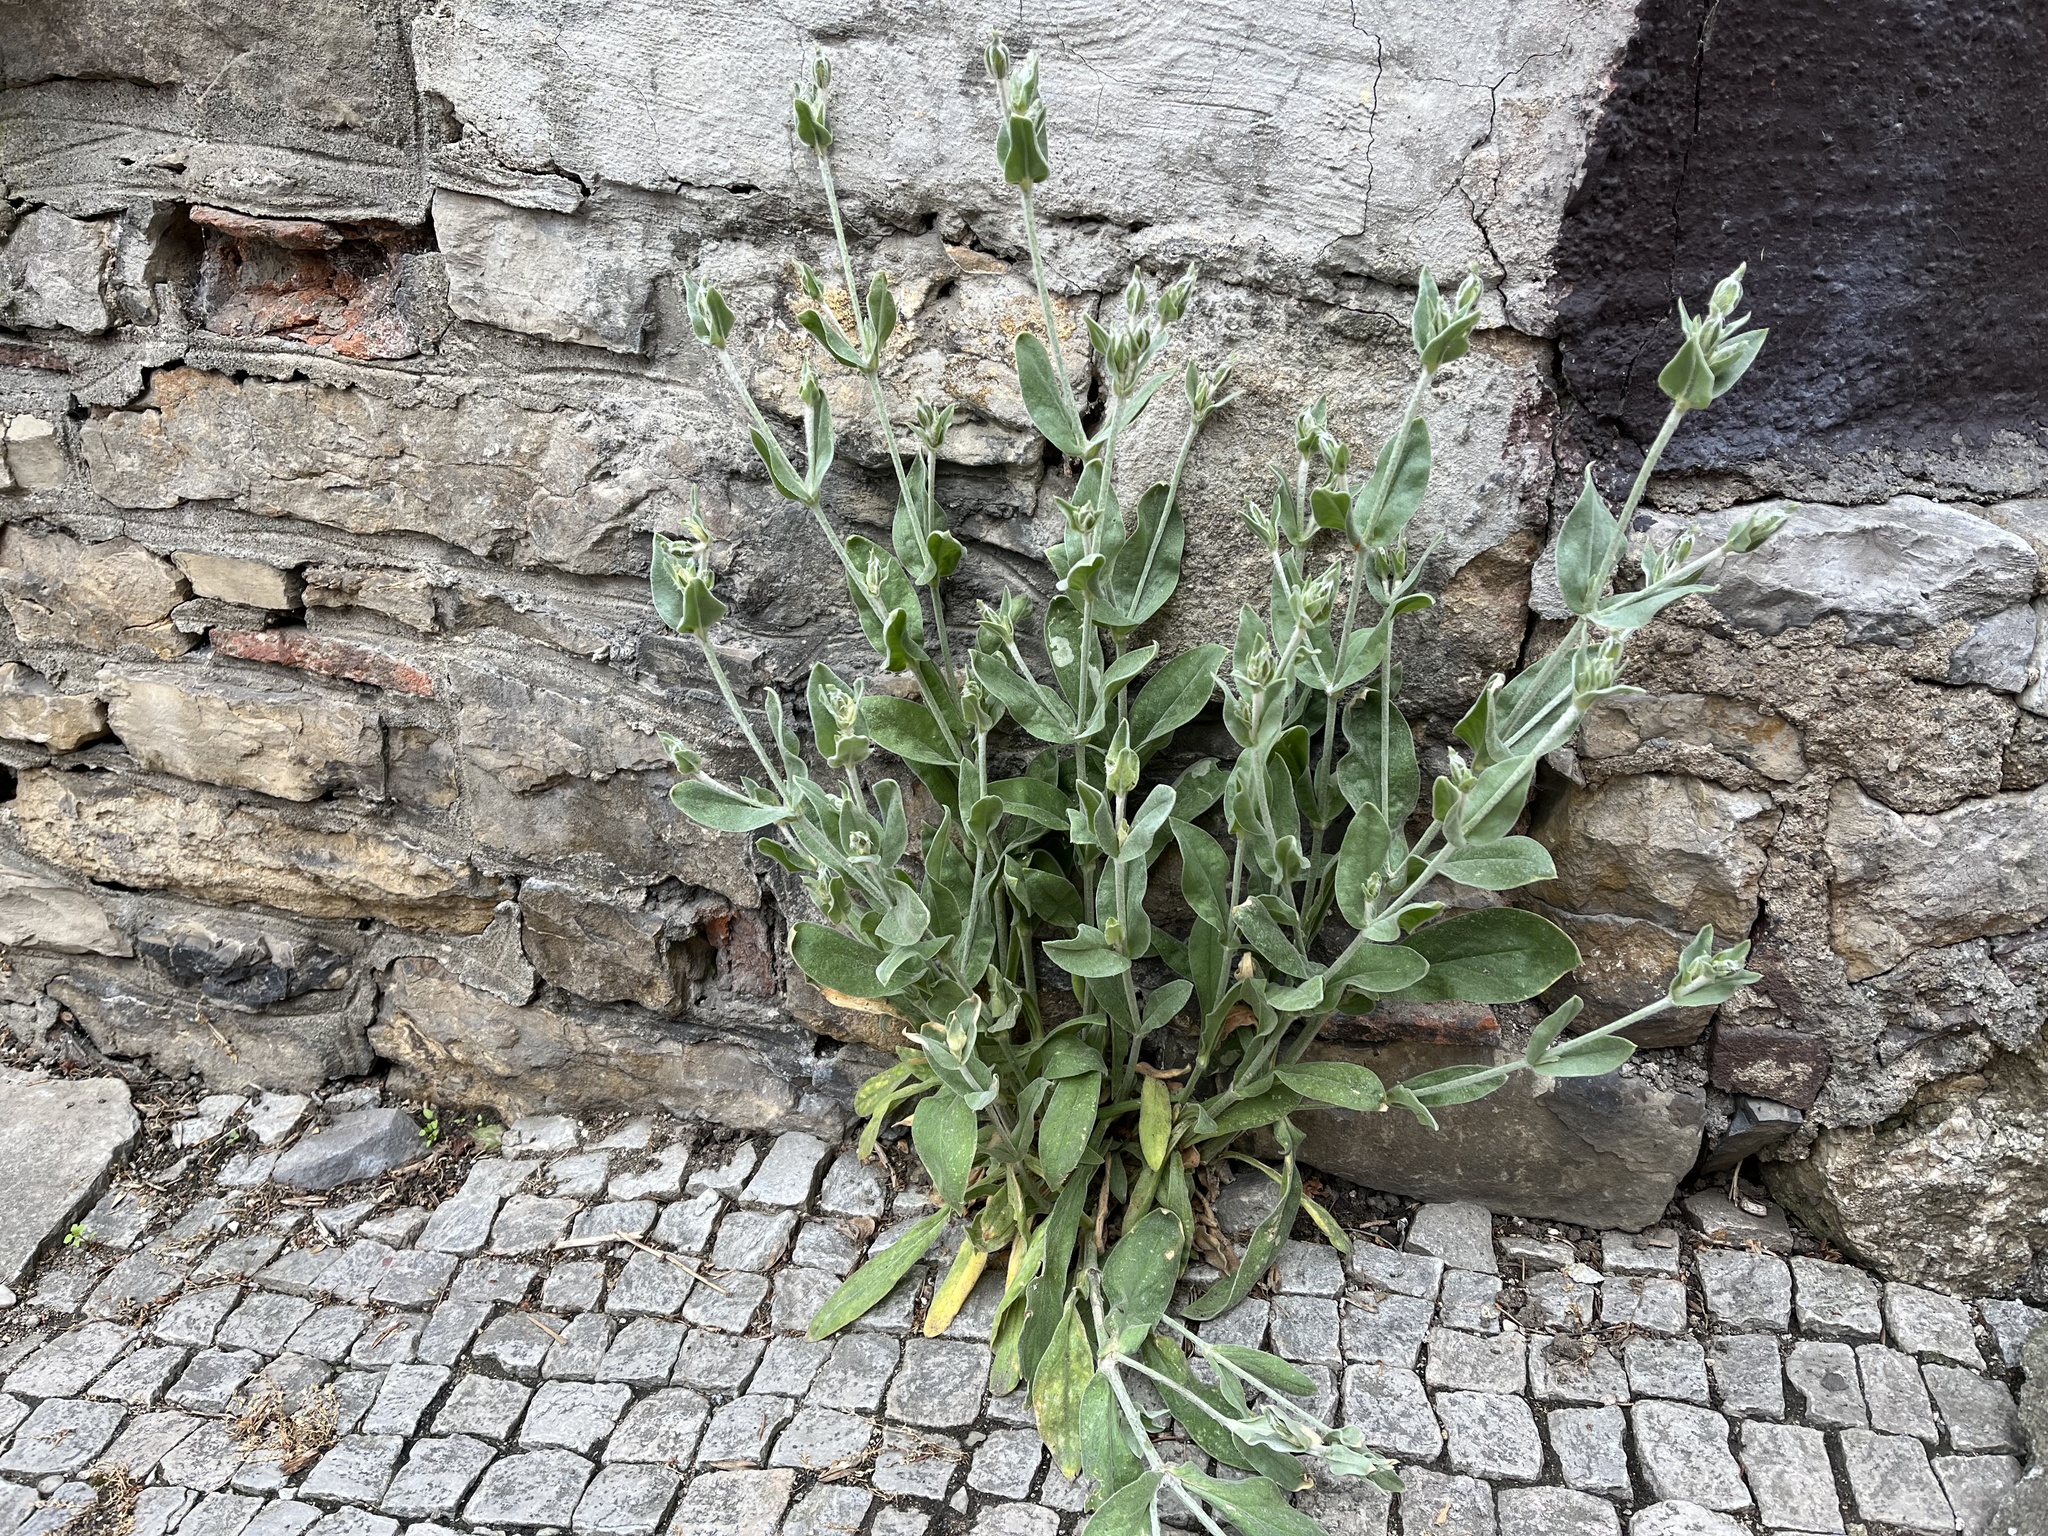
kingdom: Plantae
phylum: Tracheophyta
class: Magnoliopsida
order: Caryophyllales
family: Caryophyllaceae
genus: Silene
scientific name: Silene coronaria
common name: Rose campion
